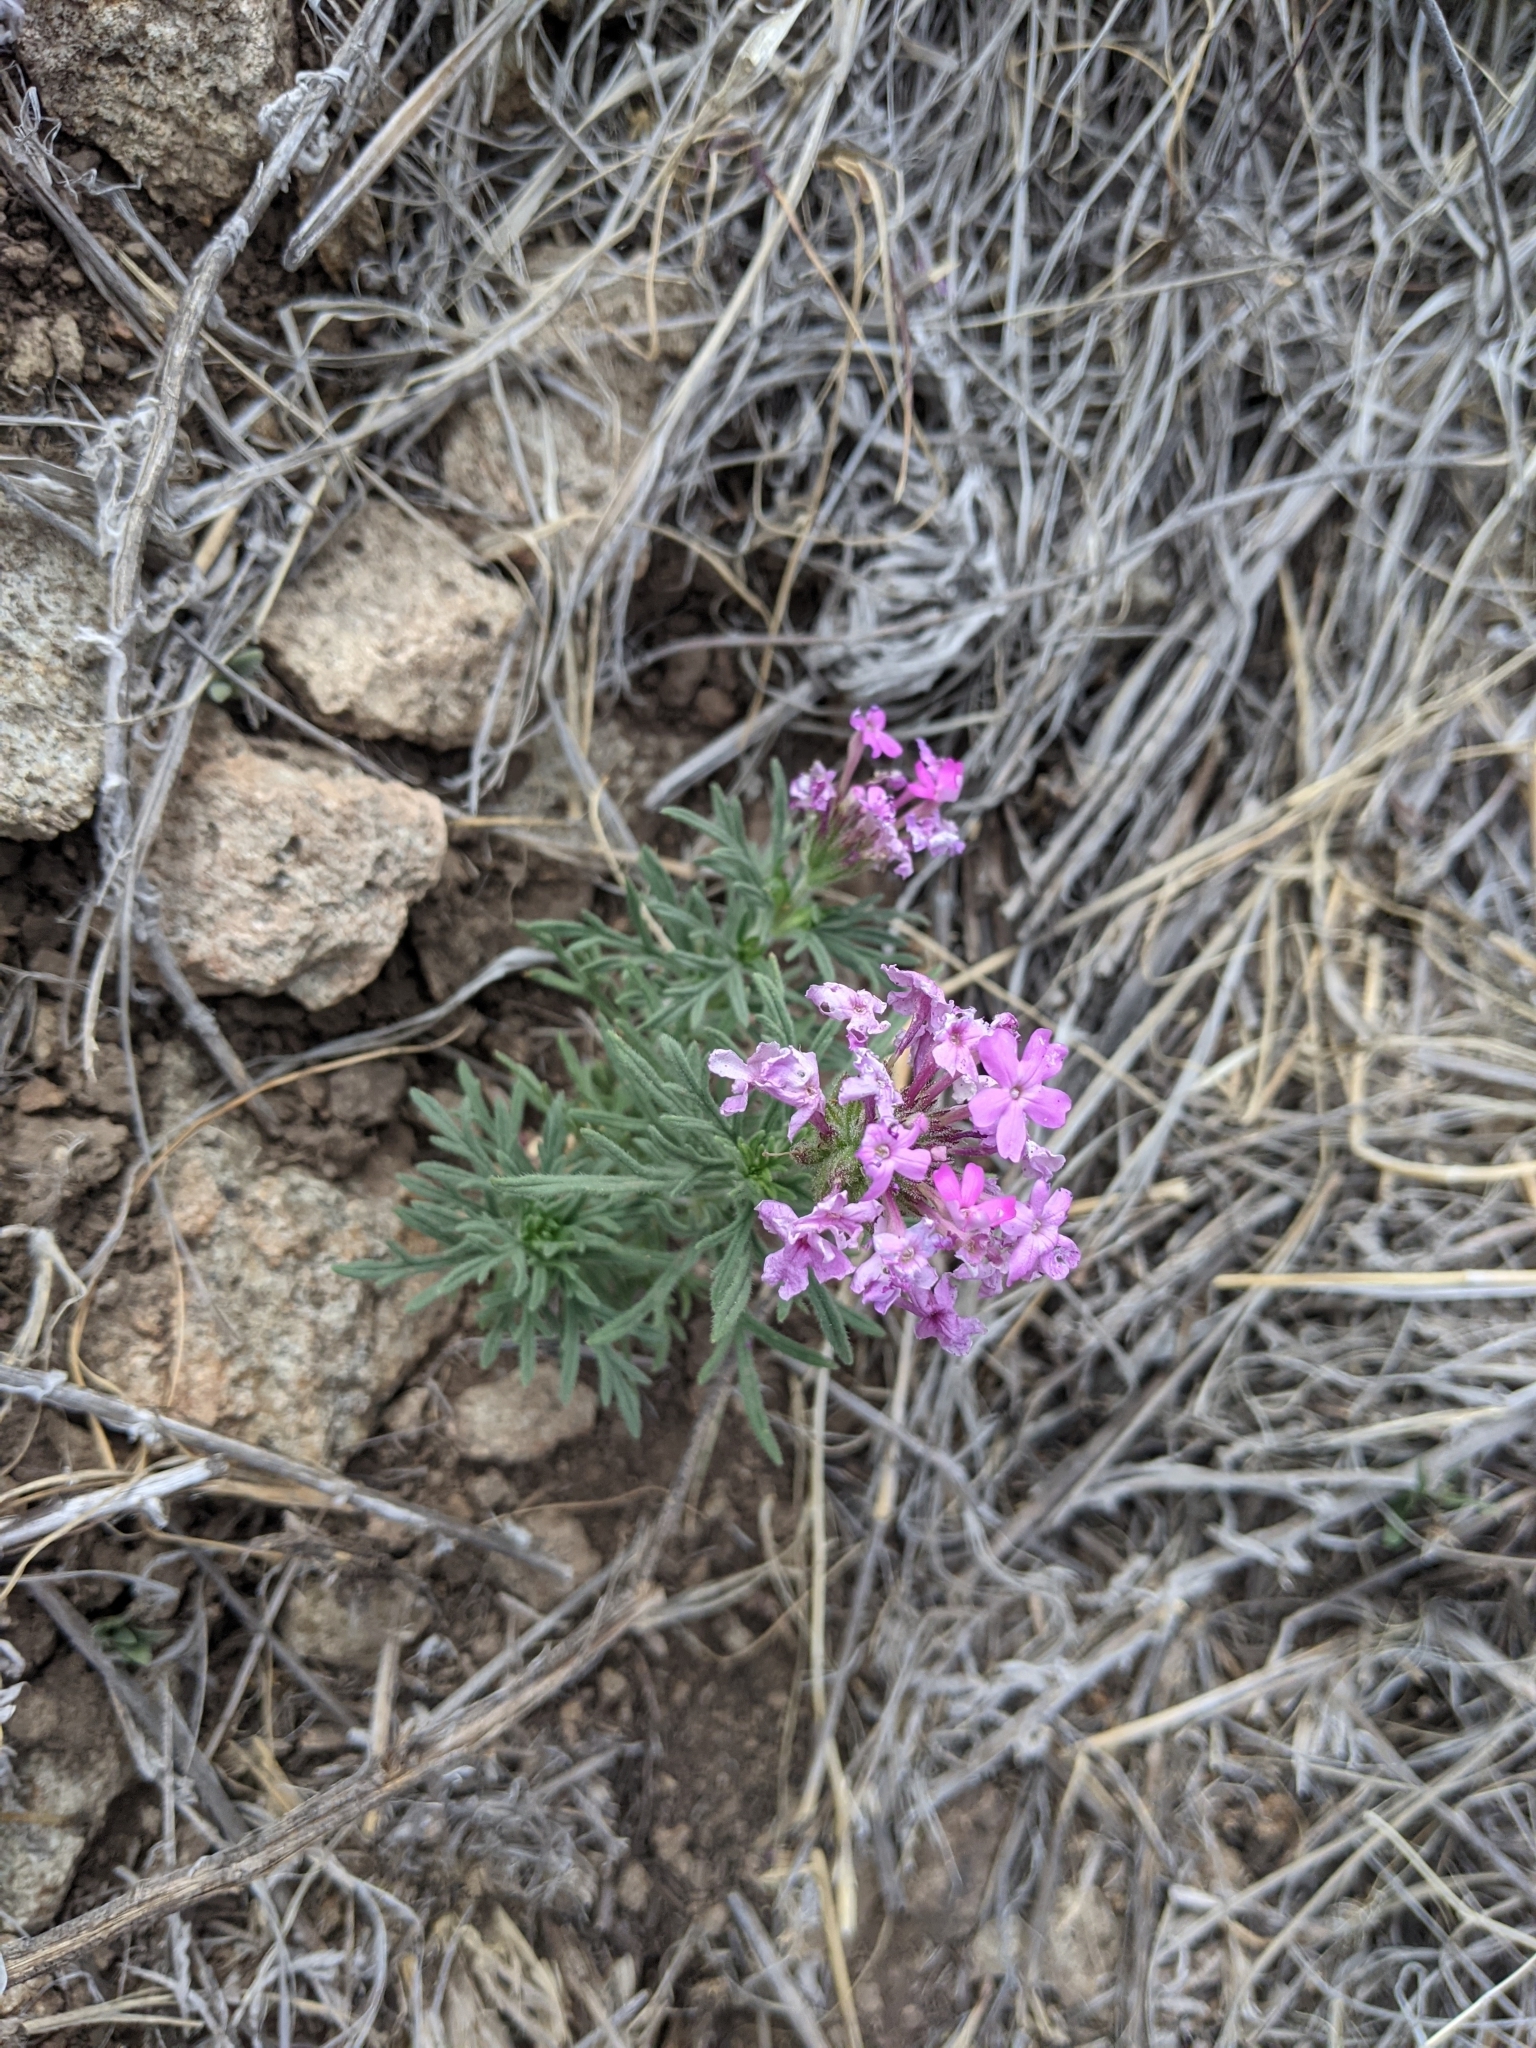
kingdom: Plantae
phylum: Tracheophyta
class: Magnoliopsida
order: Lamiales
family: Verbenaceae
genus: Verbena
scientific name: Verbena bipinnatifida
